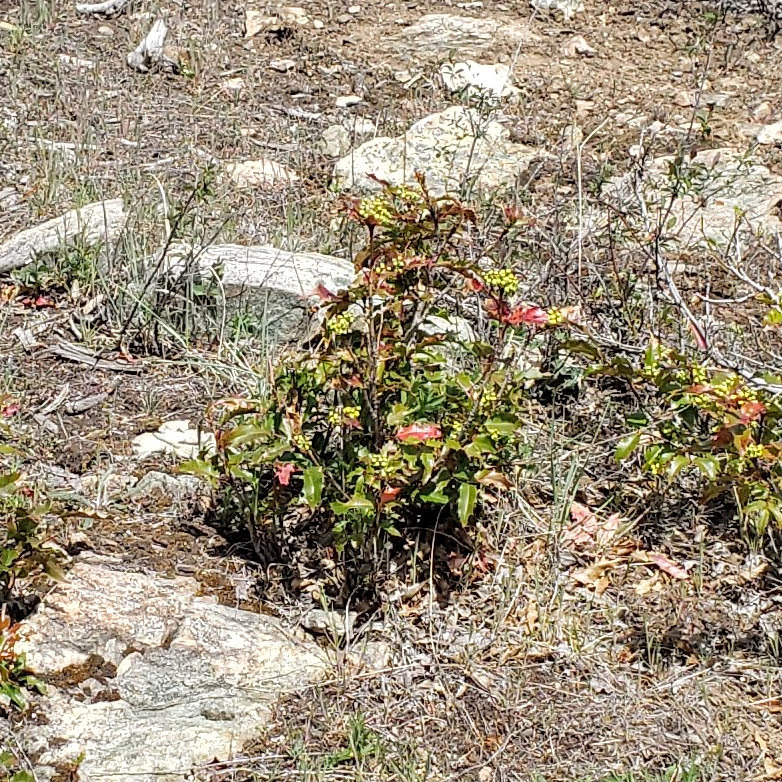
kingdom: Plantae
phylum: Tracheophyta
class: Magnoliopsida
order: Ranunculales
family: Berberidaceae
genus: Mahonia
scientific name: Mahonia aquifolium
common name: Oregon-grape
